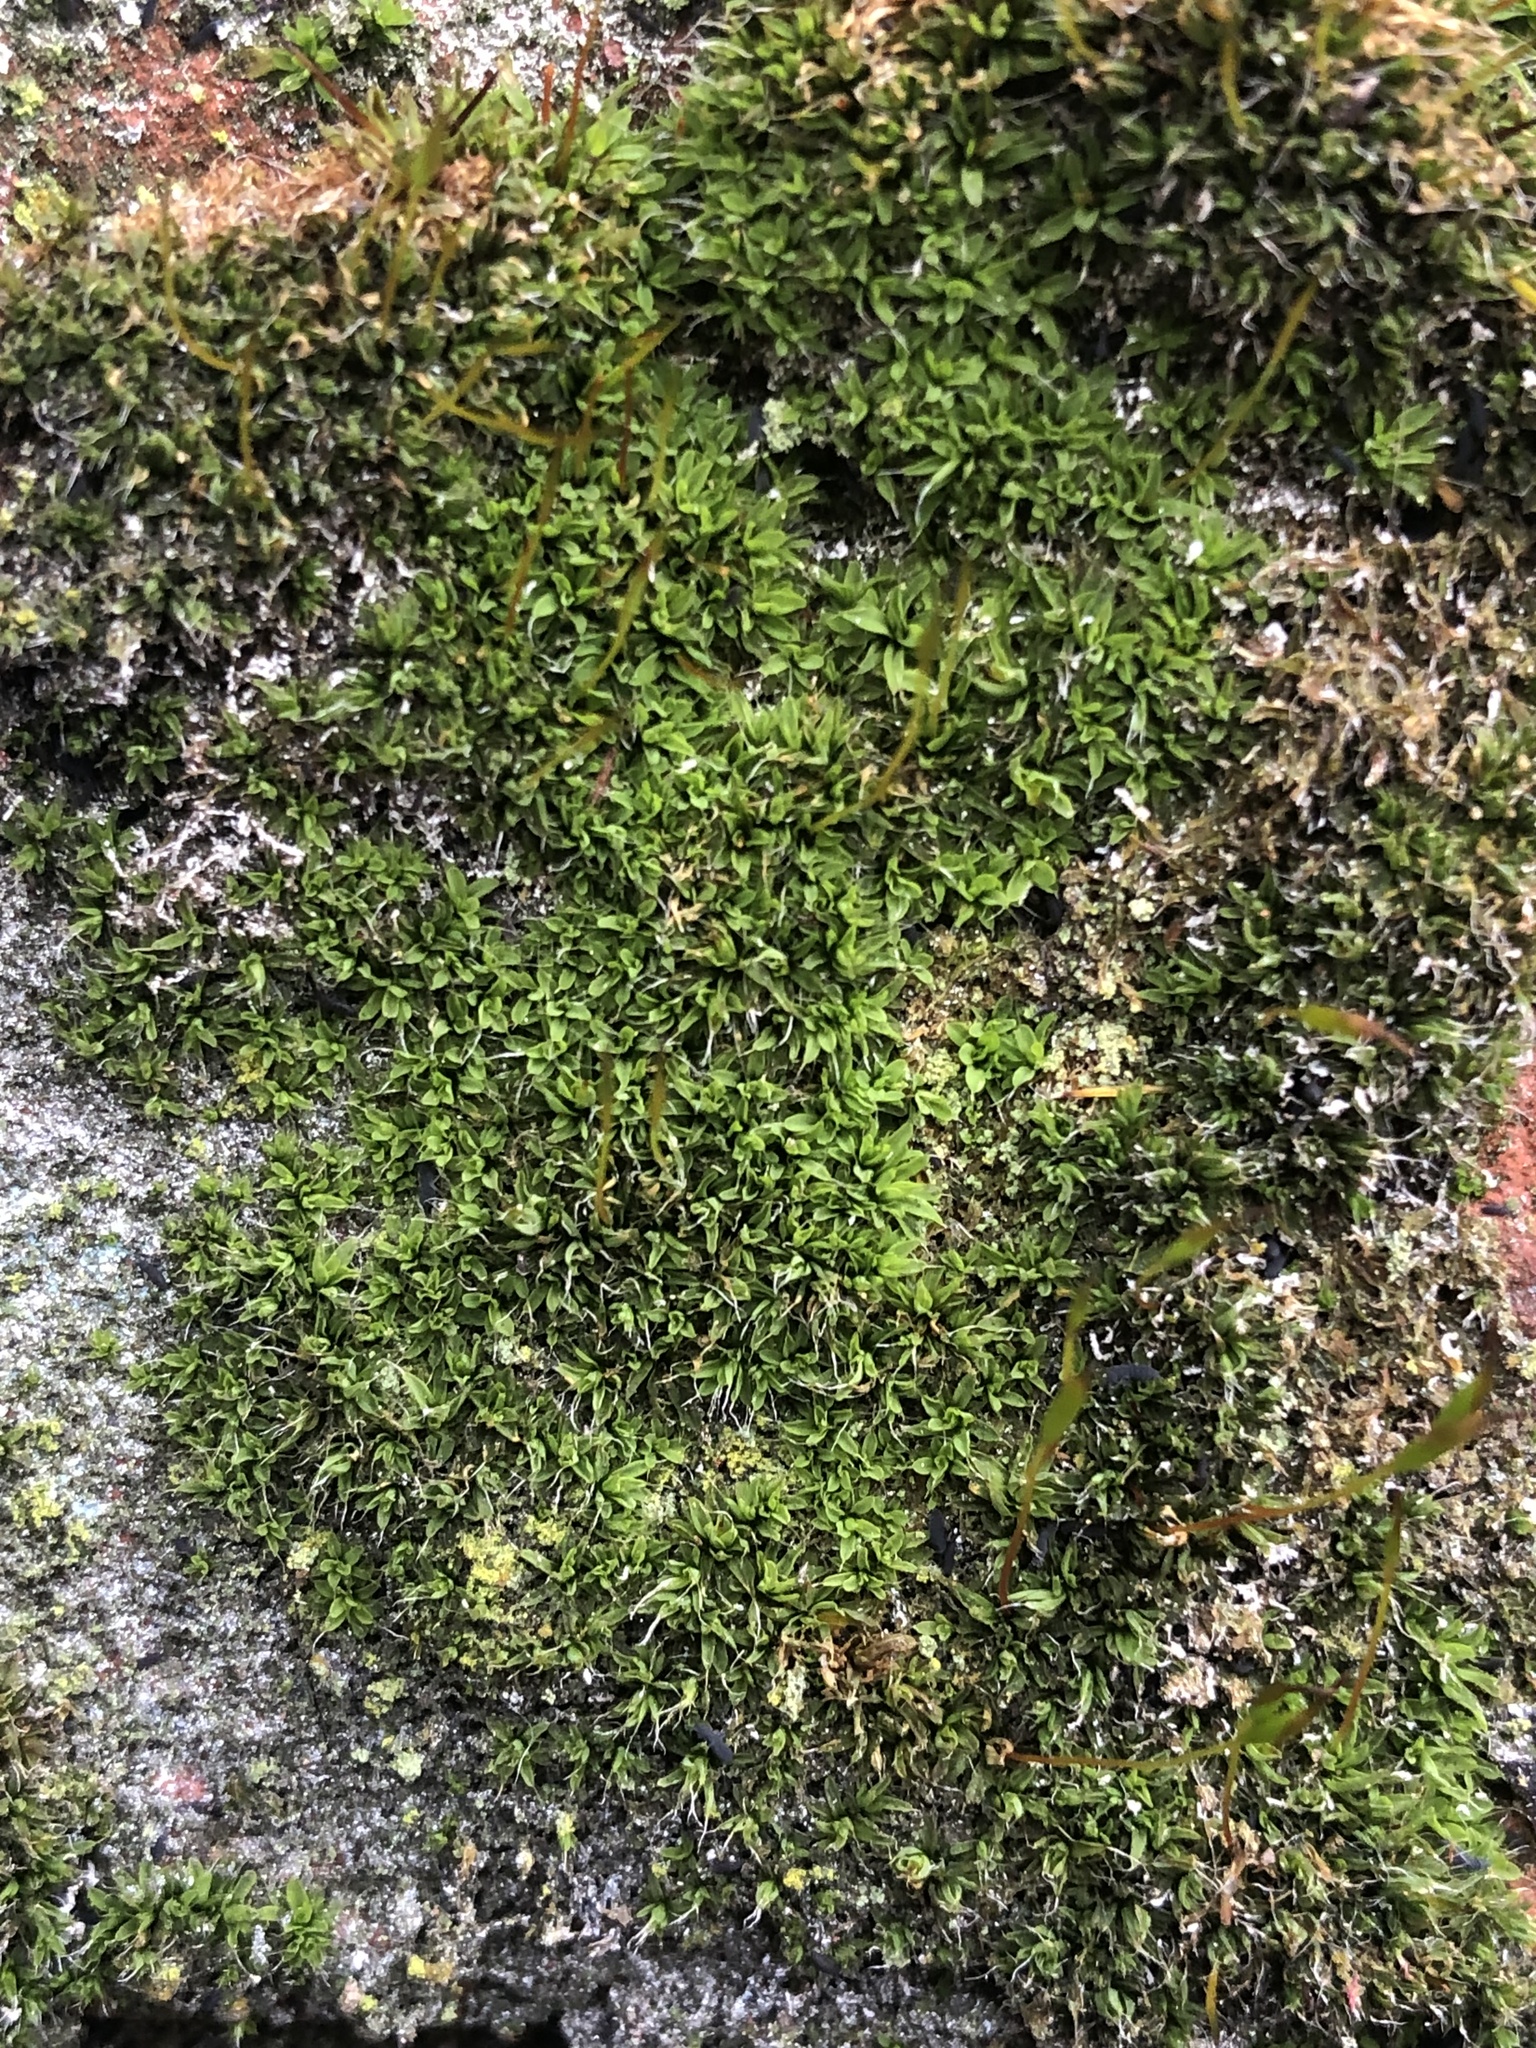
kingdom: Plantae
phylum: Bryophyta
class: Bryopsida
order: Pottiales
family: Pottiaceae
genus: Tortula
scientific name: Tortula muralis
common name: Wall screw-moss
